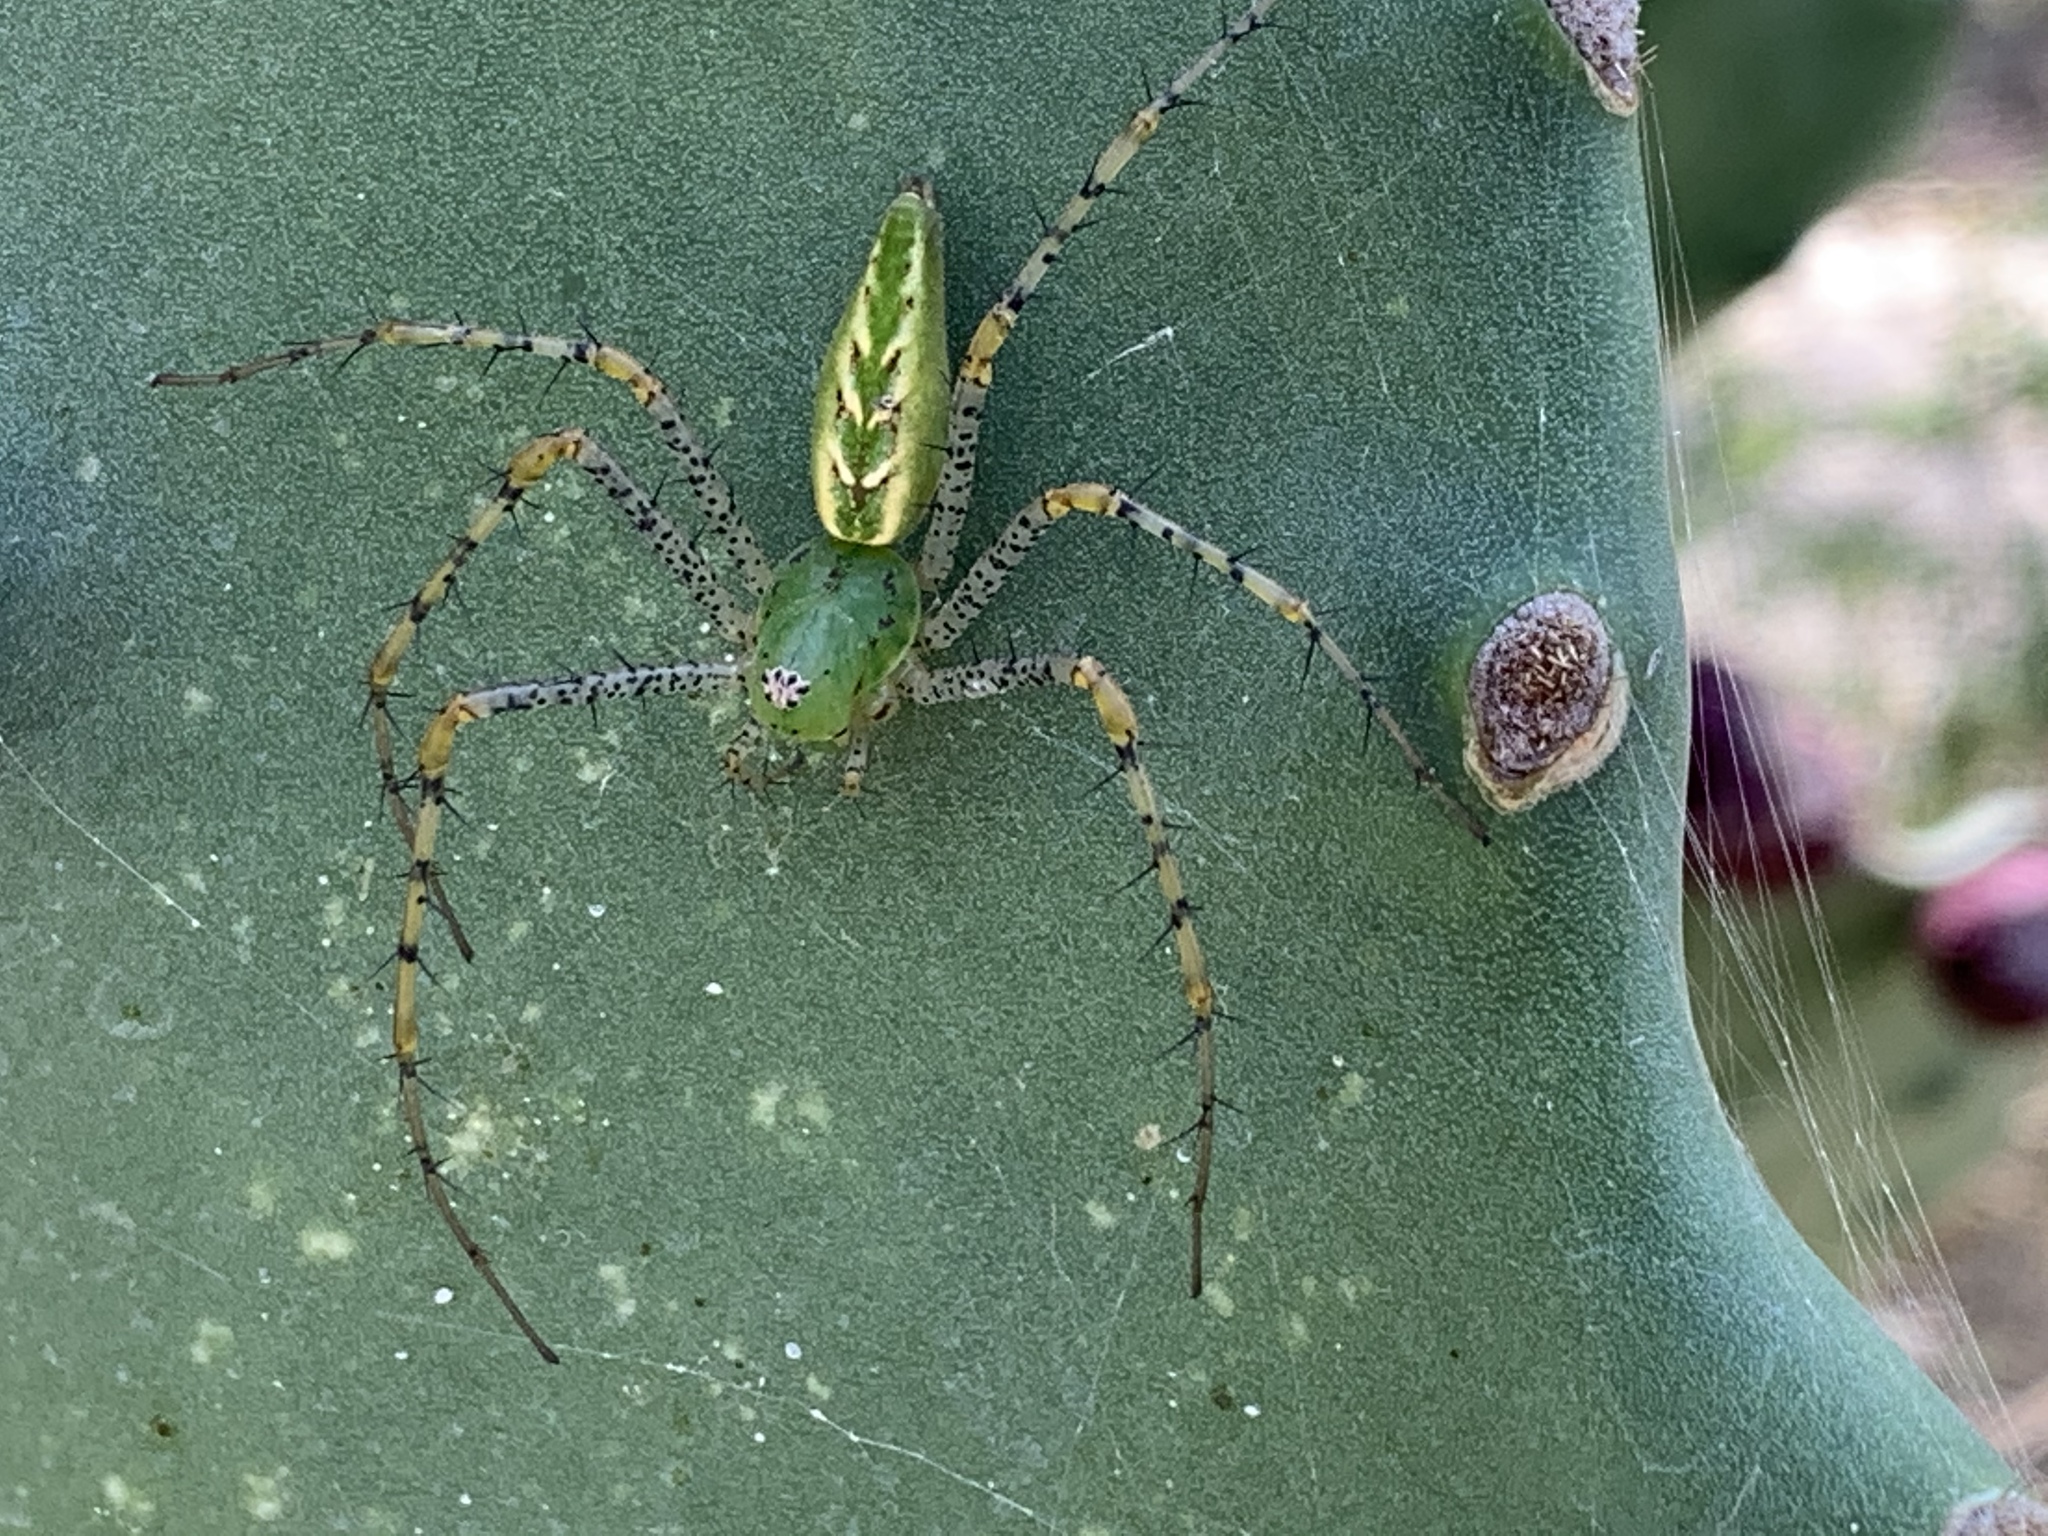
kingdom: Animalia
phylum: Arthropoda
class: Arachnida
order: Araneae
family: Oxyopidae
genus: Peucetia
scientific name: Peucetia viridans
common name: Lynx spiders
